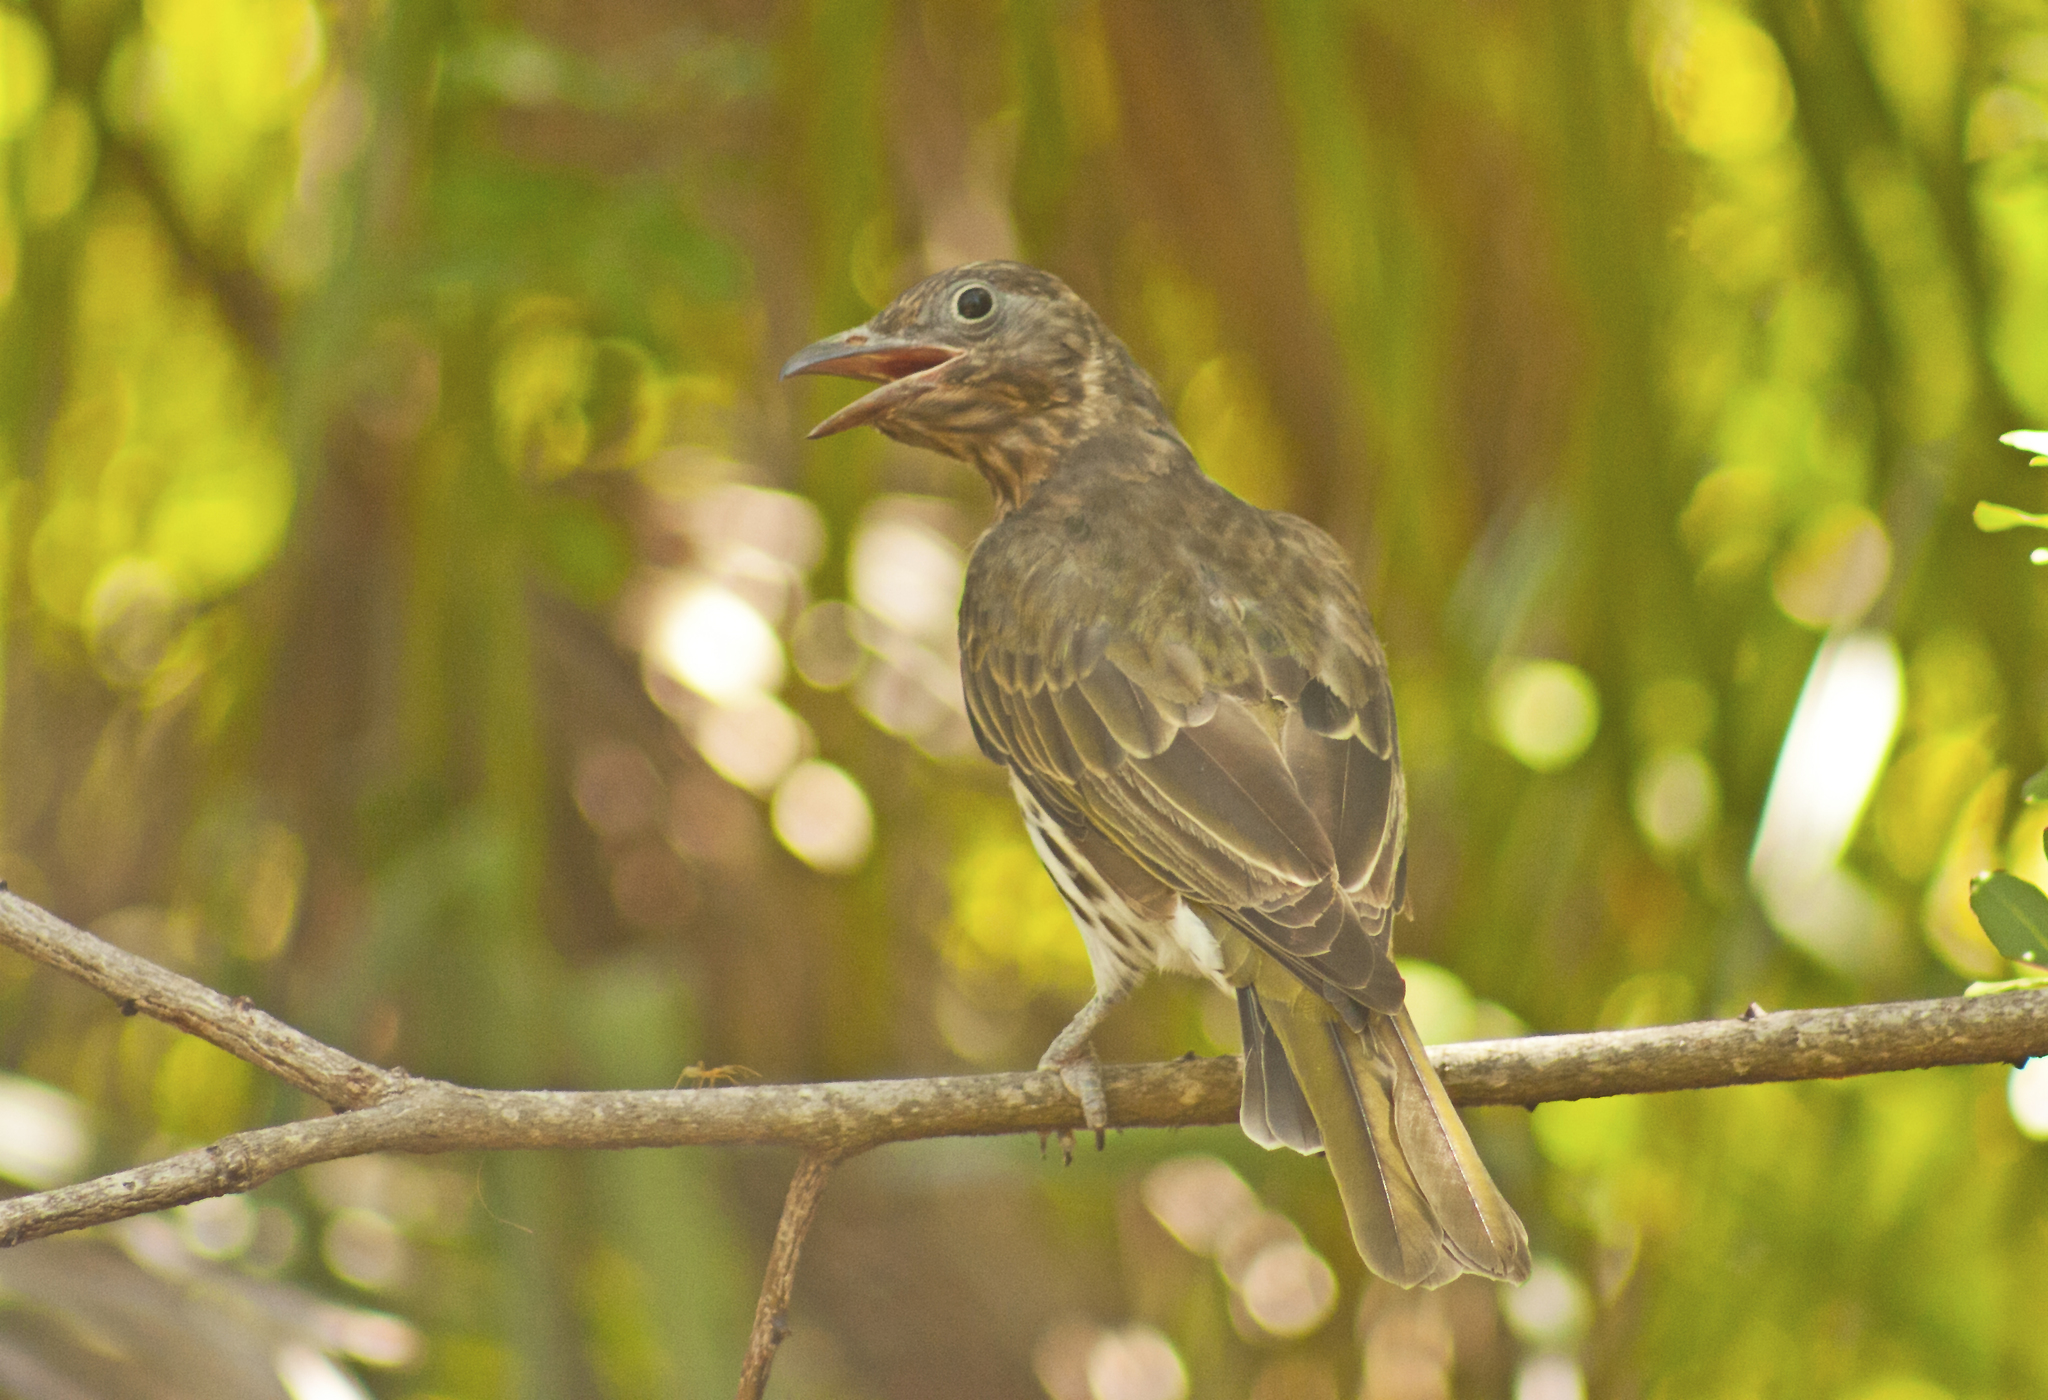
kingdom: Animalia
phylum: Chordata
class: Aves
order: Passeriformes
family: Oriolidae
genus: Oriolus
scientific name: Oriolus sagittatus
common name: Olive-backed oriole
